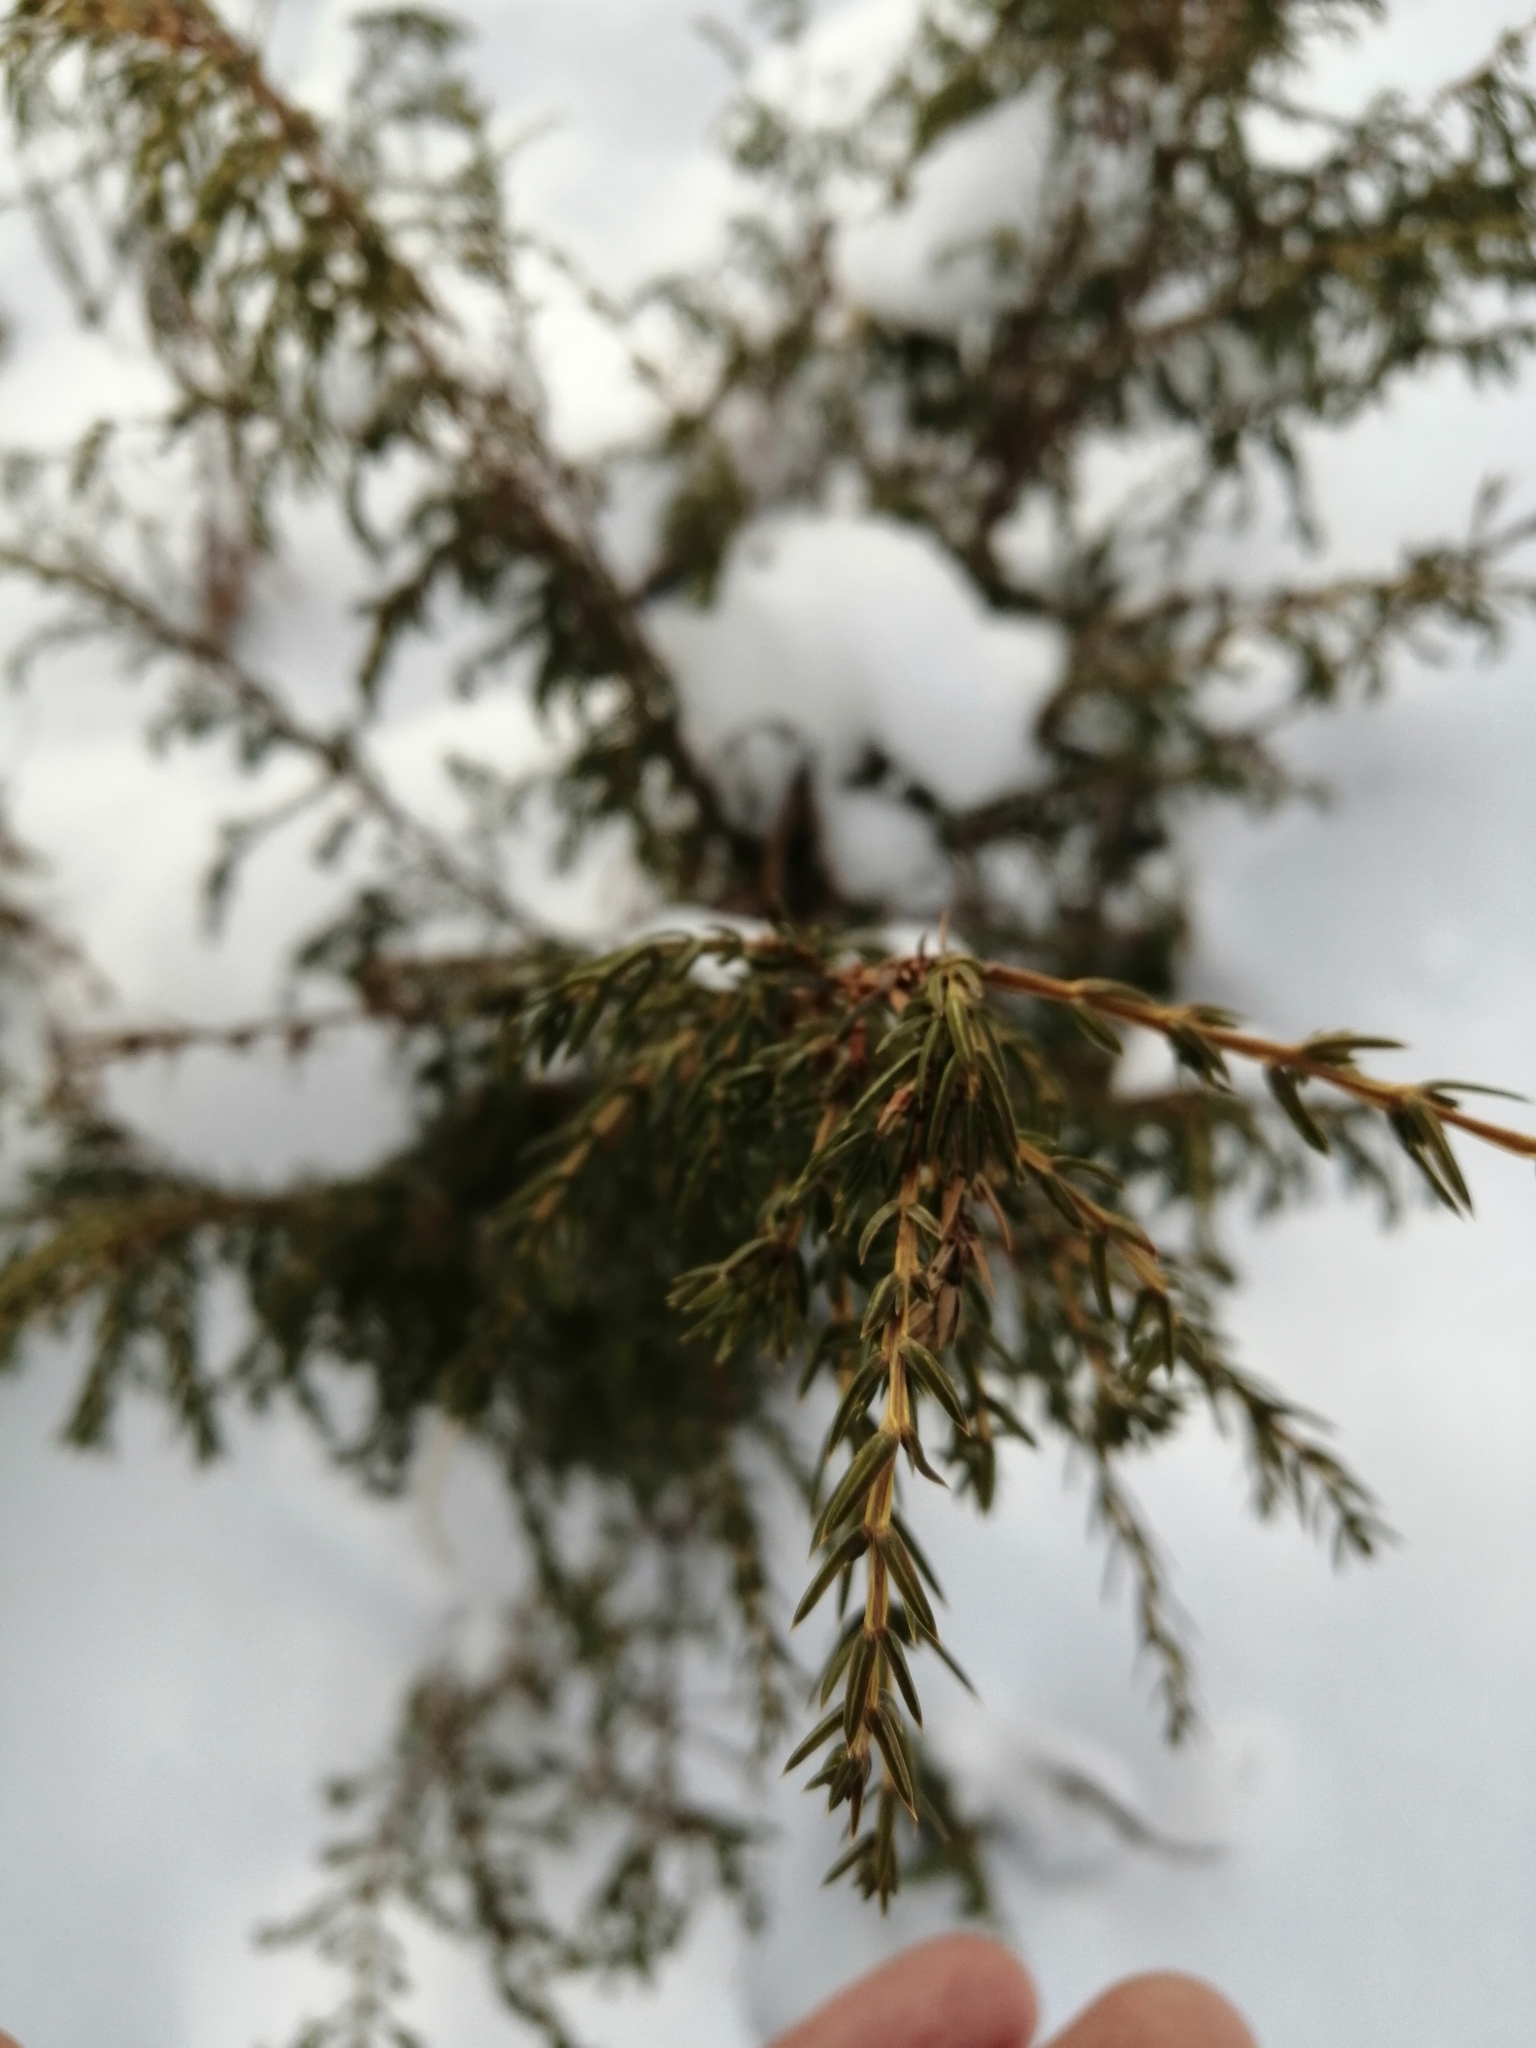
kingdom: Plantae
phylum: Tracheophyta
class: Pinopsida
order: Pinales
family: Cupressaceae
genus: Juniperus
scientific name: Juniperus communis
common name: Common juniper
